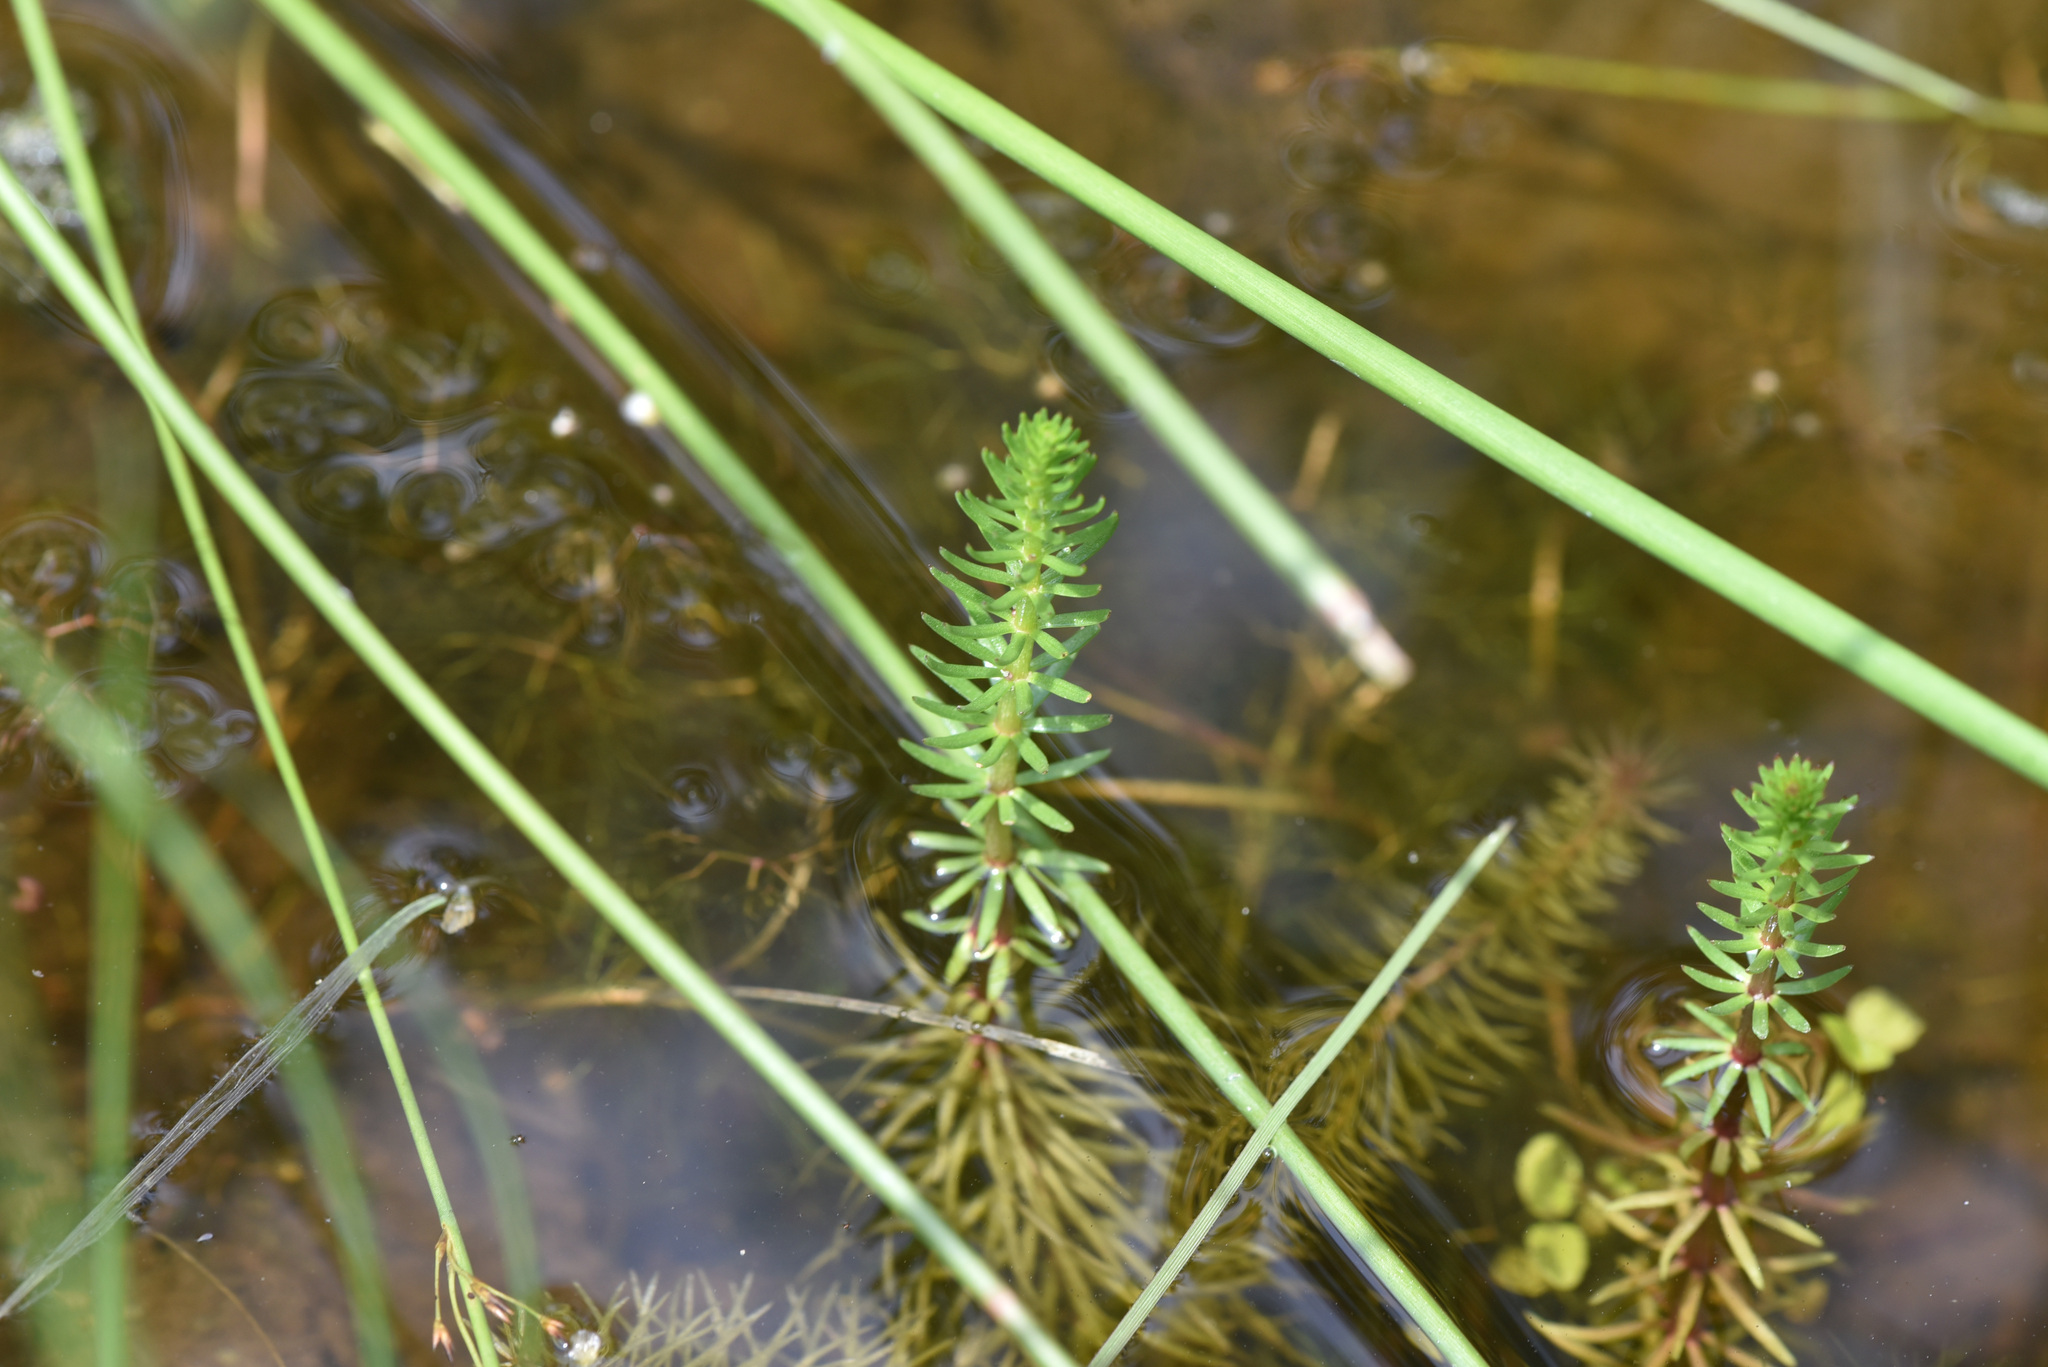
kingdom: Plantae
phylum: Tracheophyta
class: Magnoliopsida
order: Lamiales
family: Plantaginaceae
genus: Hippuris
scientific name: Hippuris vulgaris
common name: Mare's-tail
